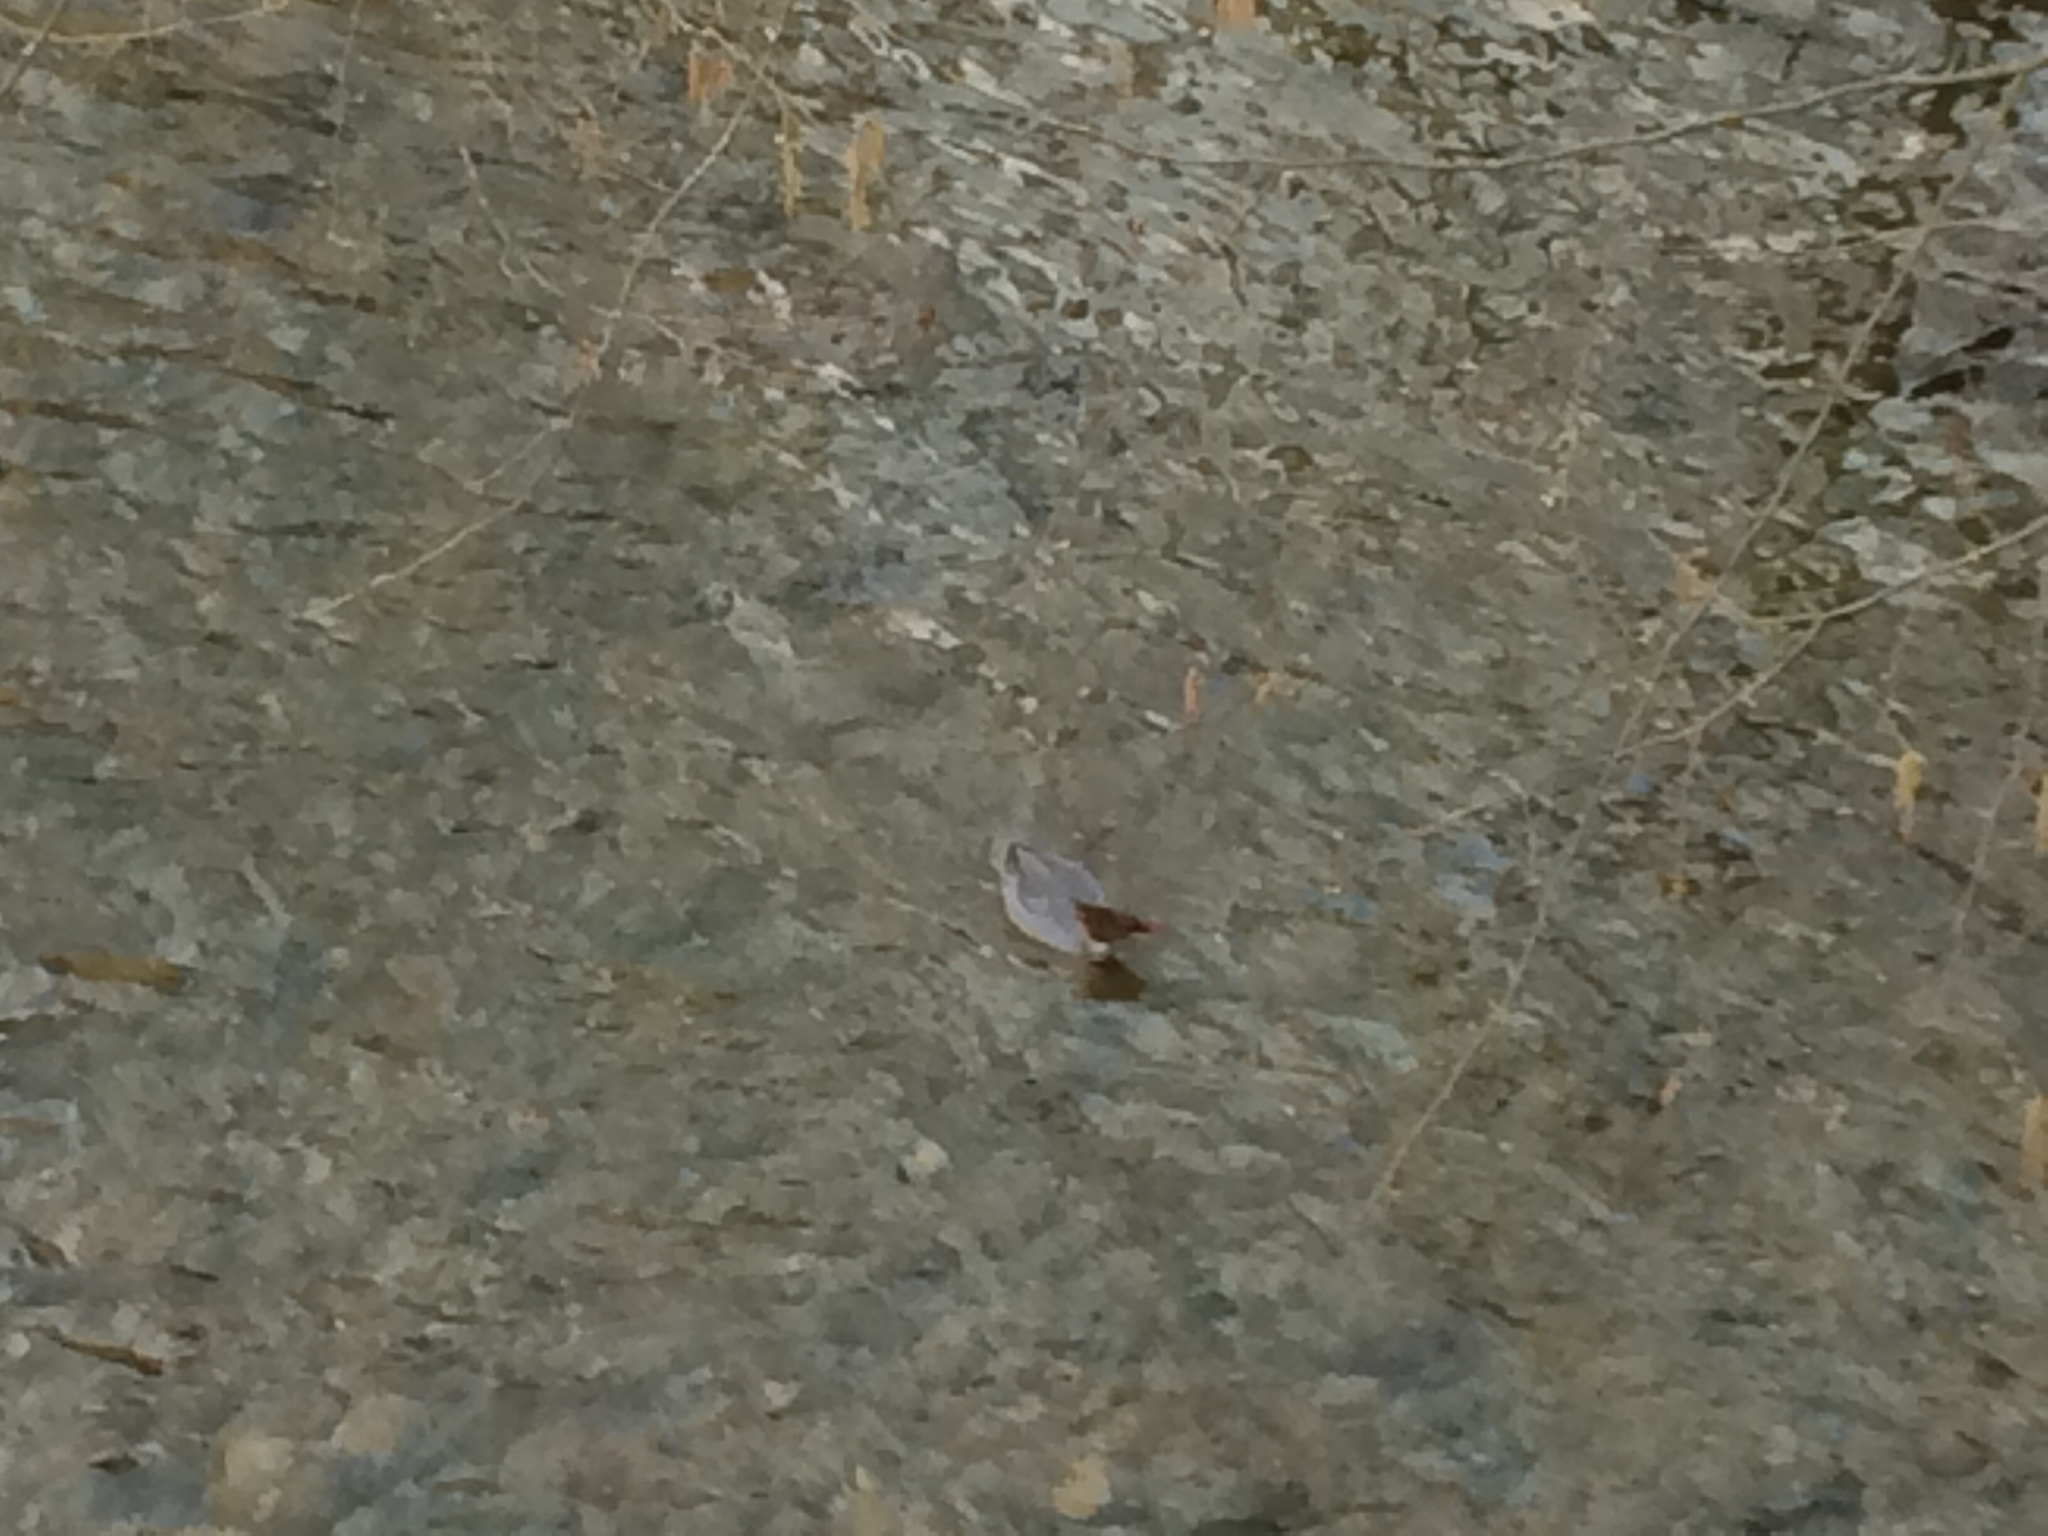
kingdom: Animalia
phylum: Chordata
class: Aves
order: Anseriformes
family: Anatidae
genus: Mergus
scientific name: Mergus merganser
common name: Common merganser
